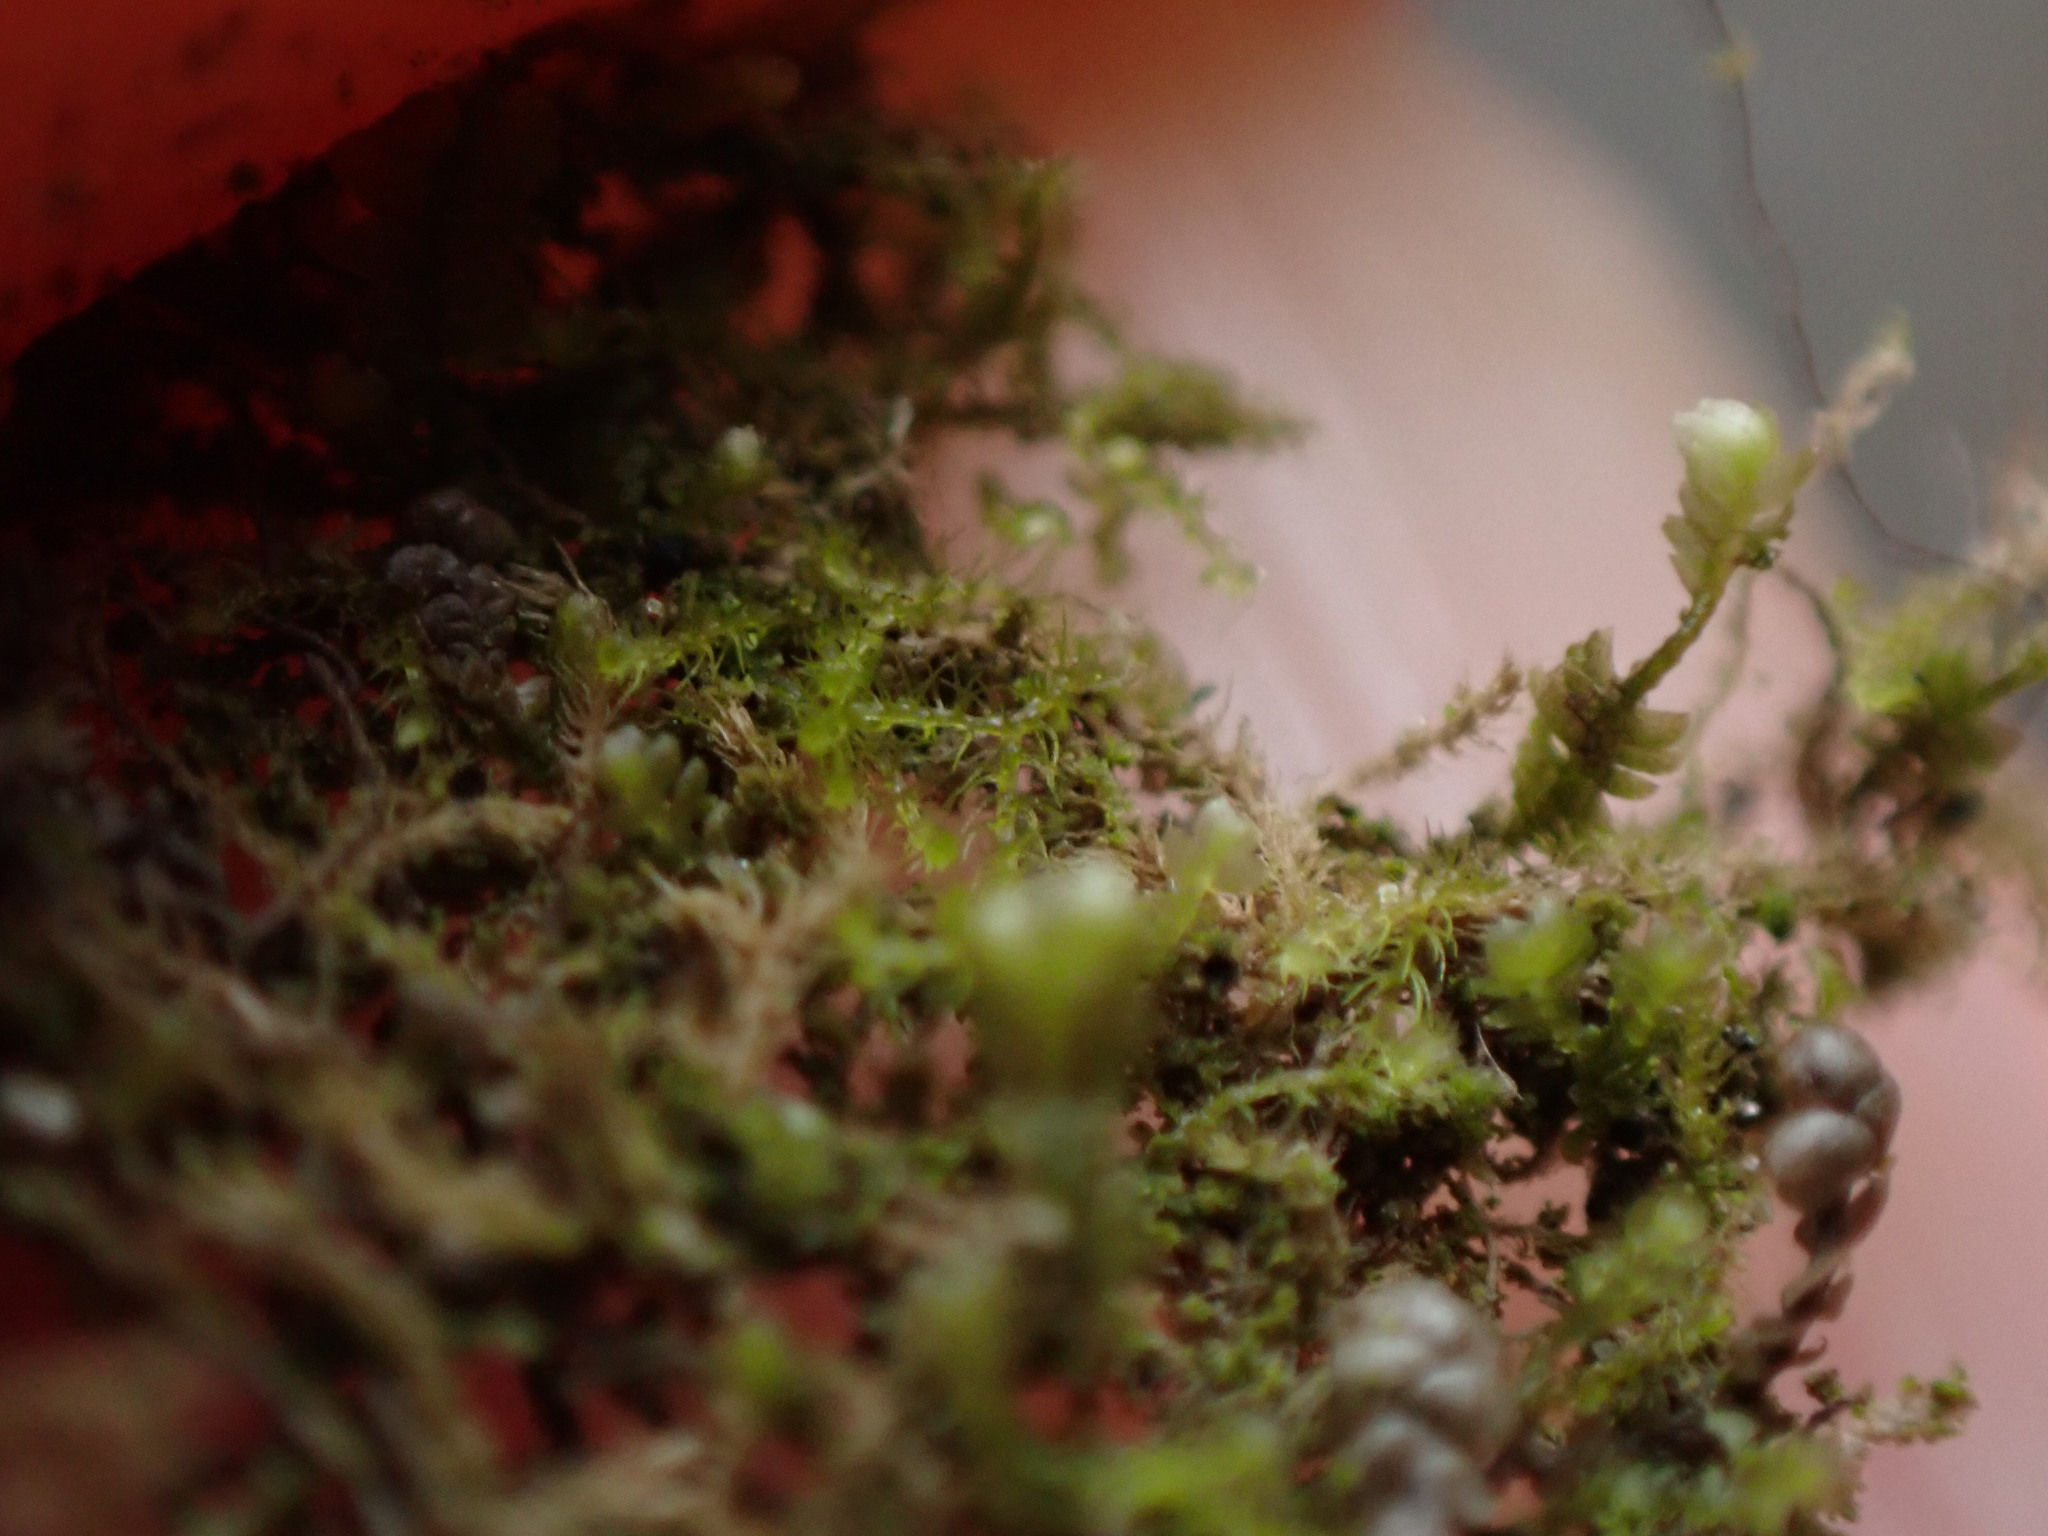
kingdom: Plantae
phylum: Marchantiophyta
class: Jungermanniopsida
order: Jungermanniales
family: Blepharostomataceae
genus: Blepharostoma
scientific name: Blepharostoma trichophyllum
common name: Hairy threadwort
